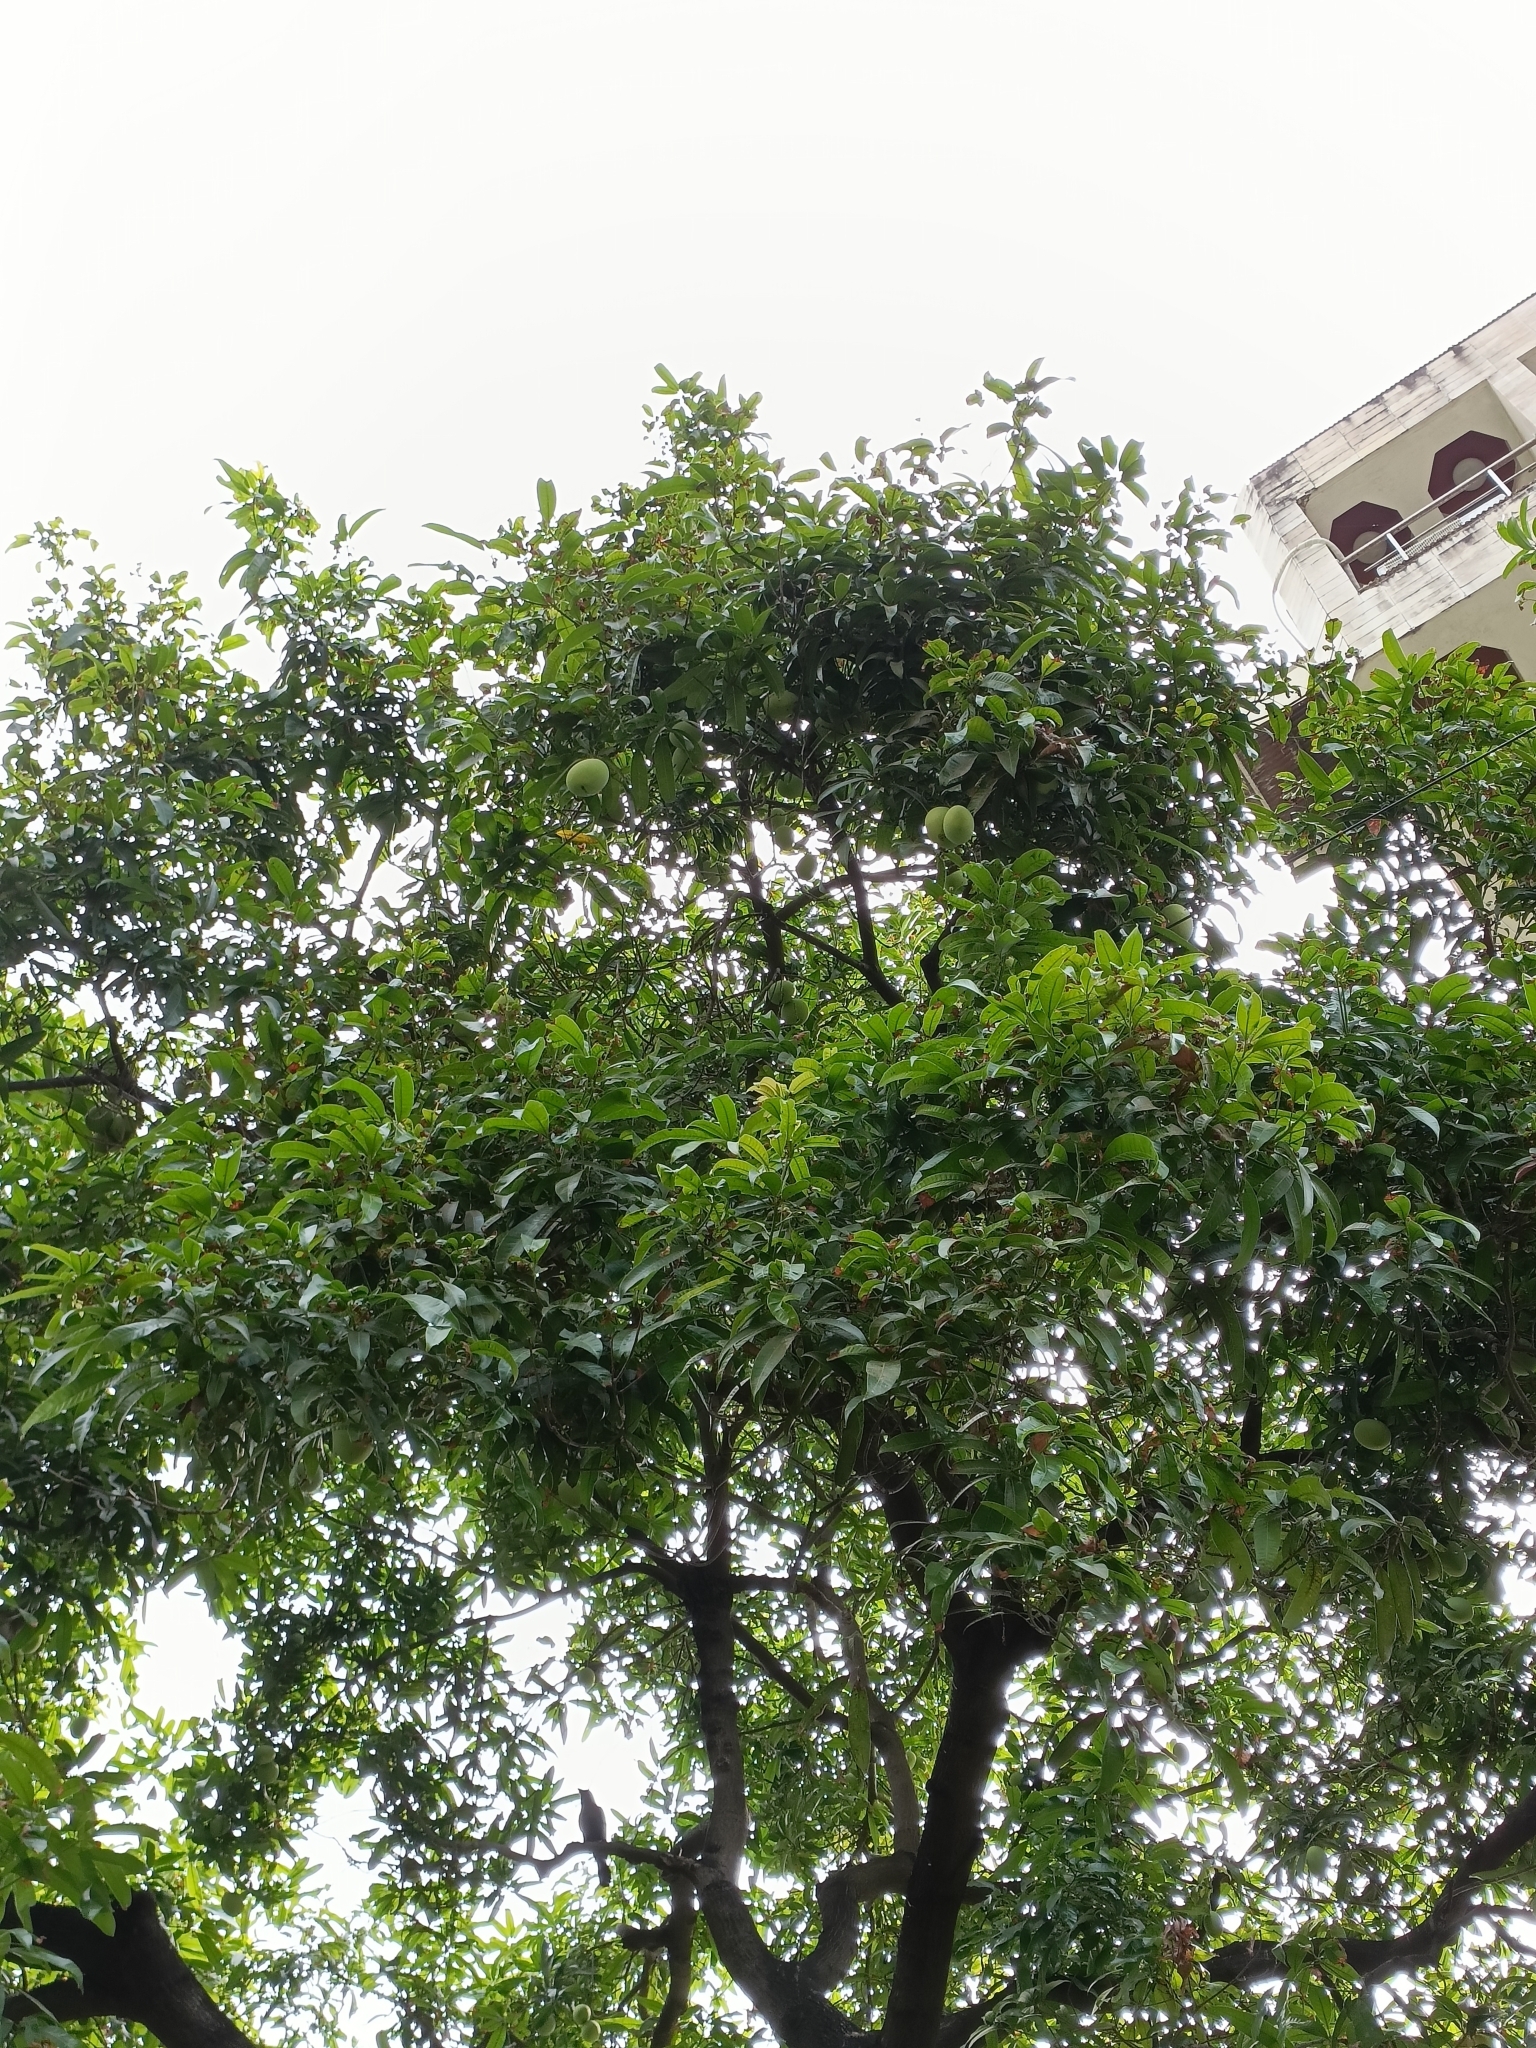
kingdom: Plantae
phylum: Tracheophyta
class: Magnoliopsida
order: Sapindales
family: Anacardiaceae
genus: Mangifera
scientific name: Mangifera indica
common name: Mango
